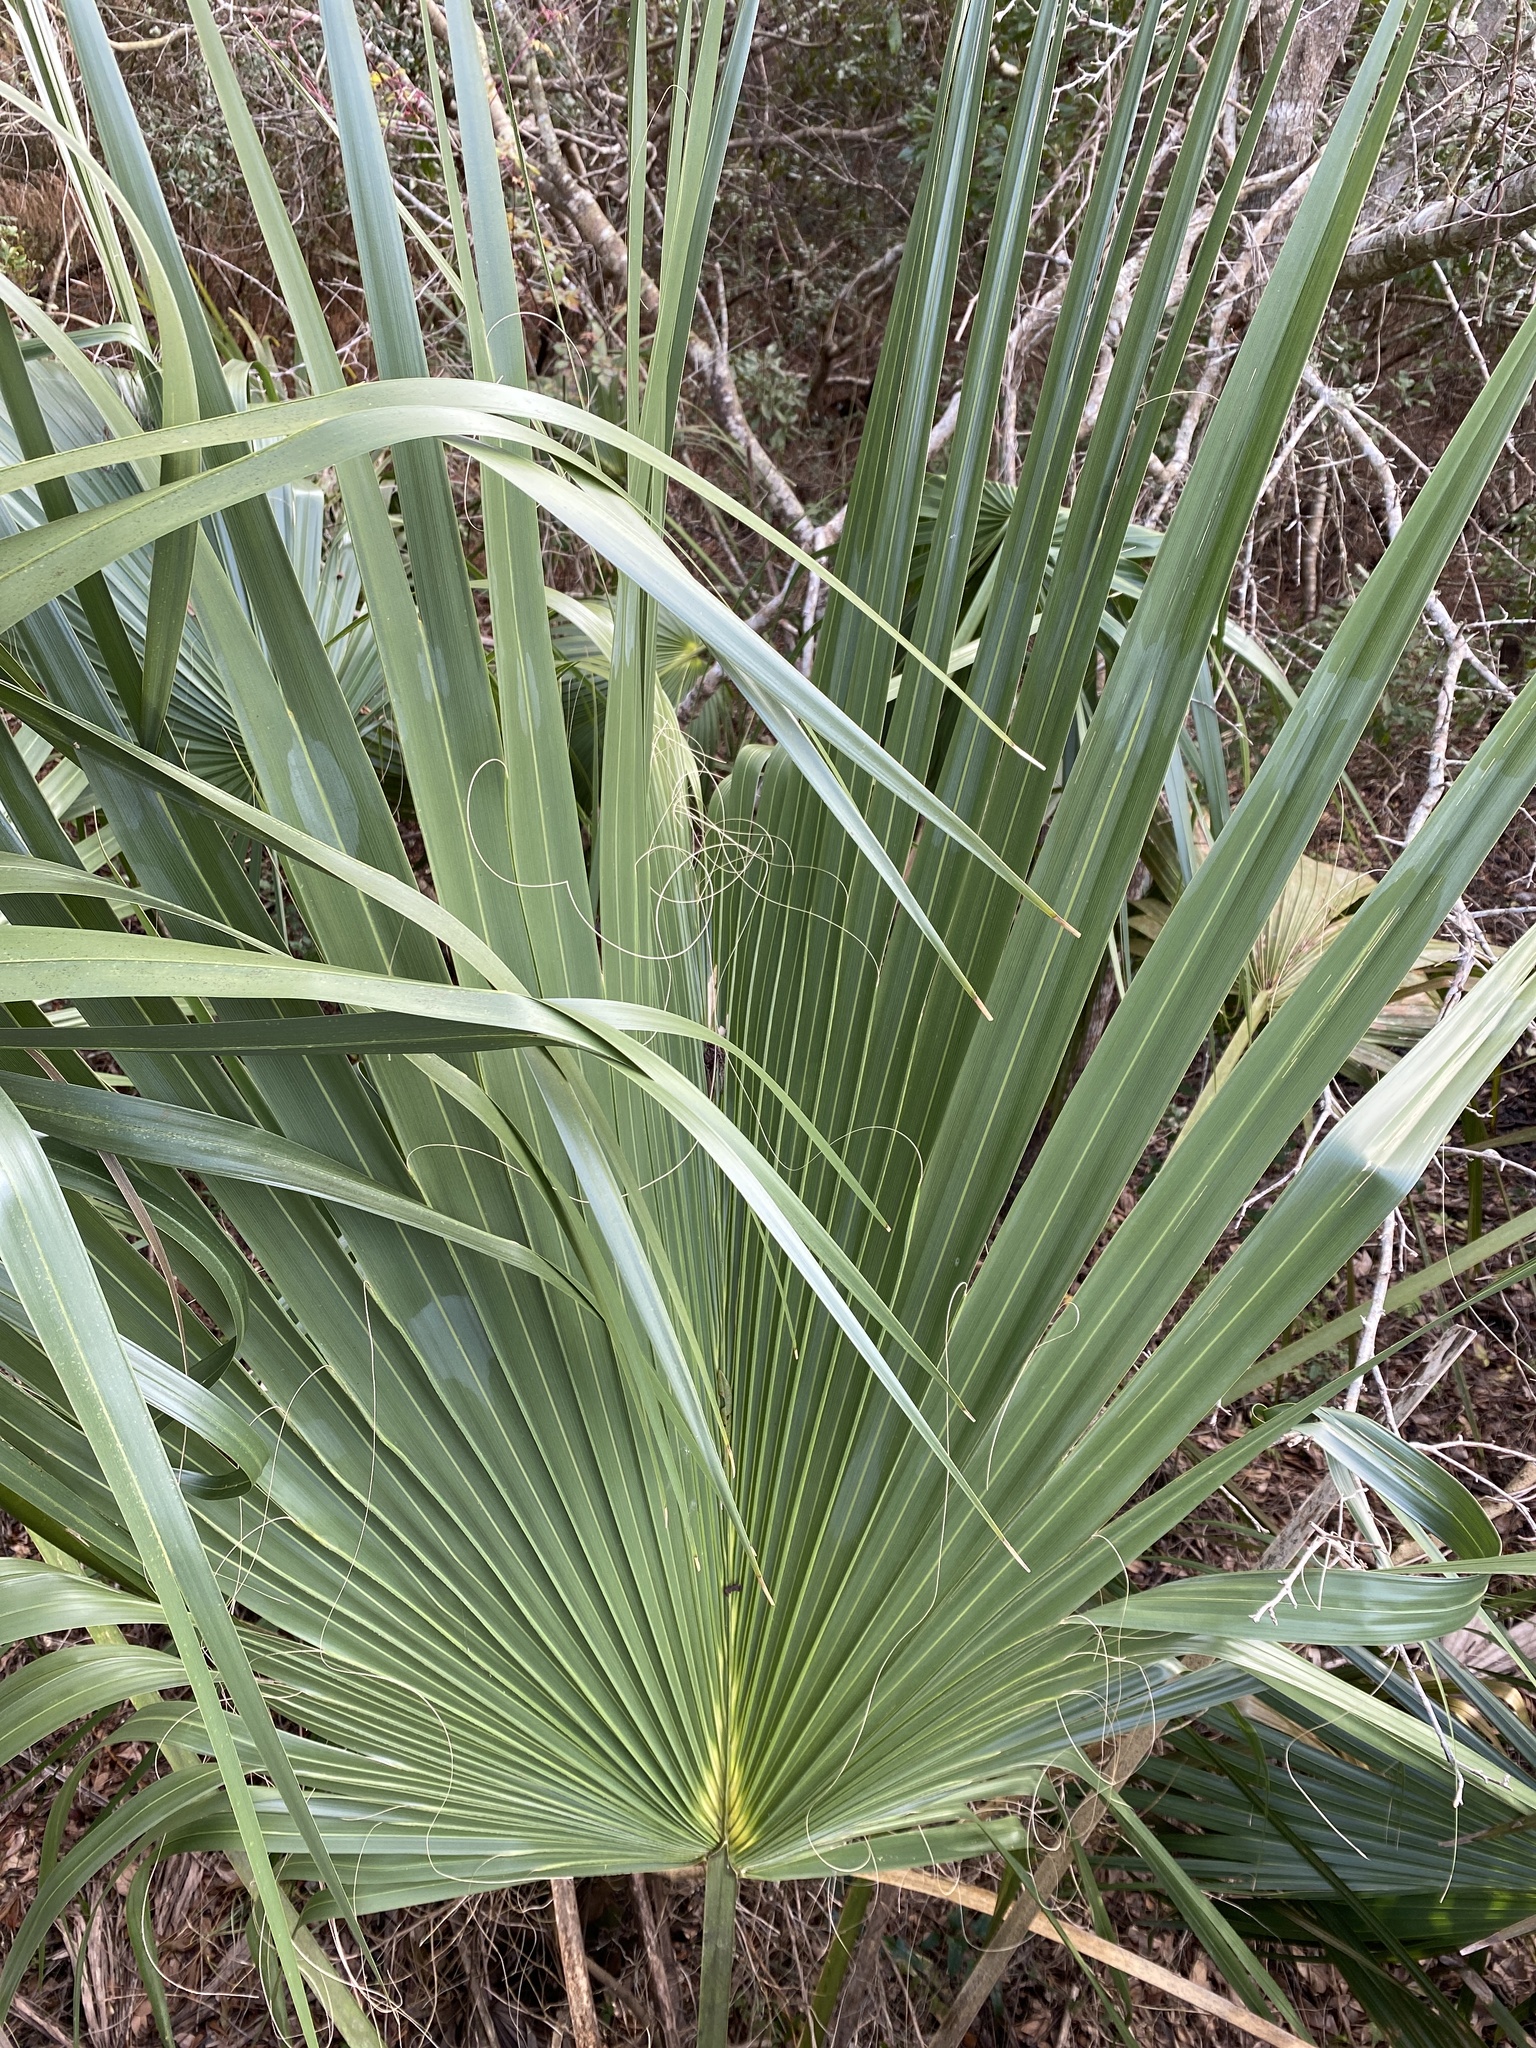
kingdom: Plantae
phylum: Tracheophyta
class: Liliopsida
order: Arecales
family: Arecaceae
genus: Sabal
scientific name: Sabal palmetto
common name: Blue palmetto
